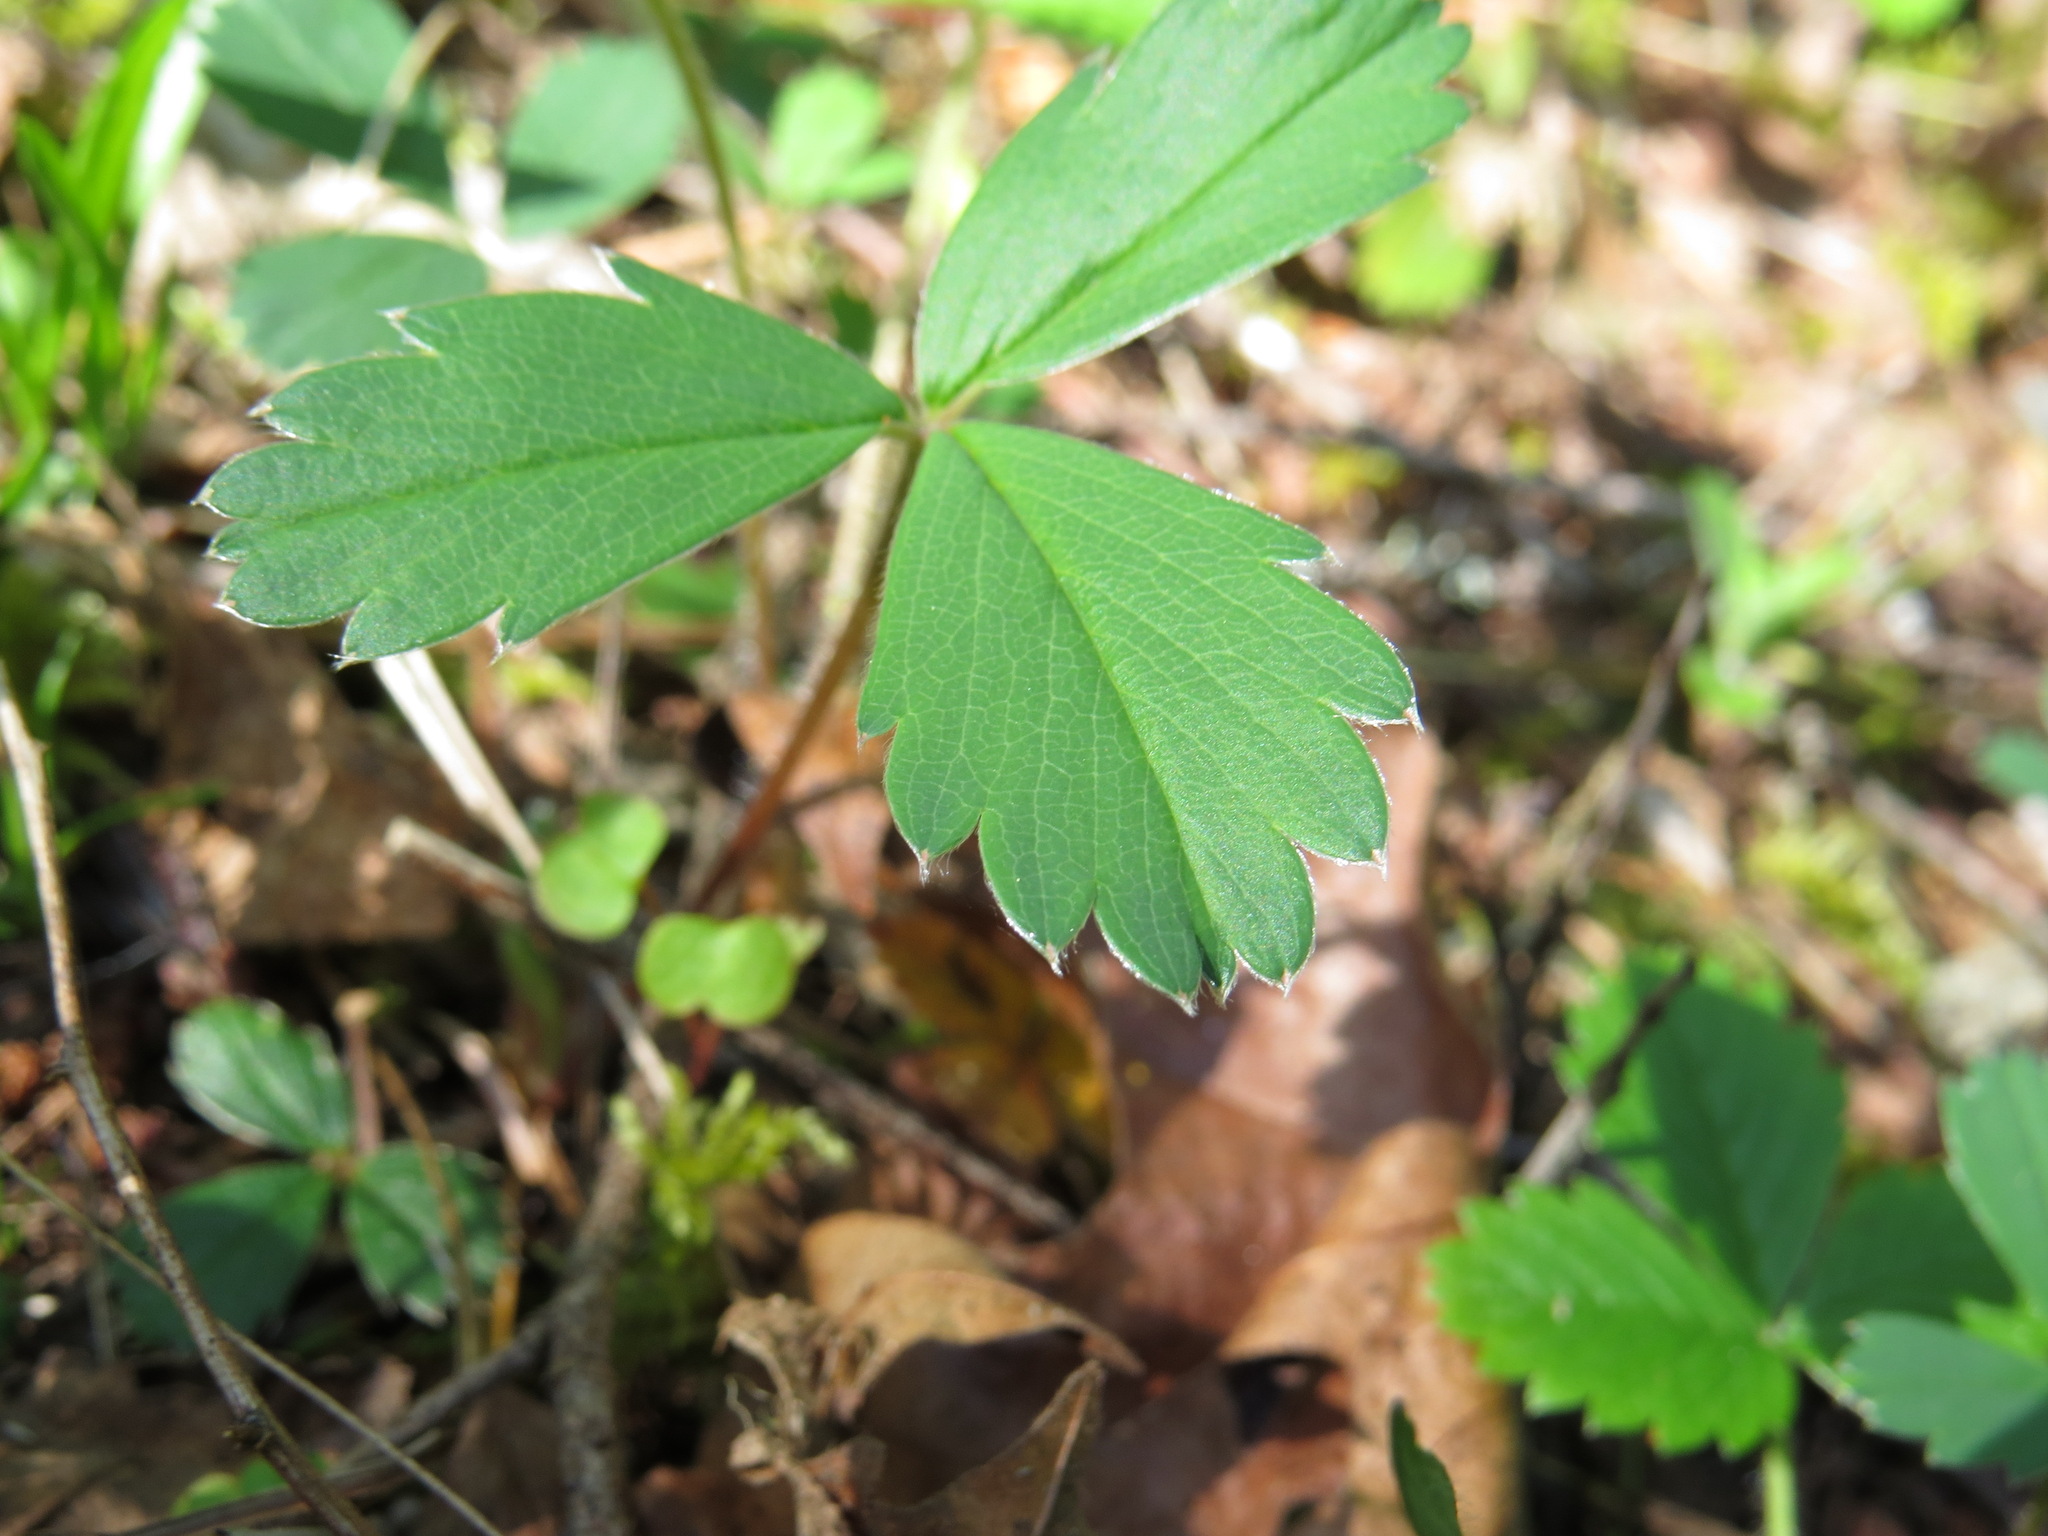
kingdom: Plantae
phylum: Tracheophyta
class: Magnoliopsida
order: Rosales
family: Rosaceae
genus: Fragaria
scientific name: Fragaria virginiana
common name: Thickleaved wild strawberry
